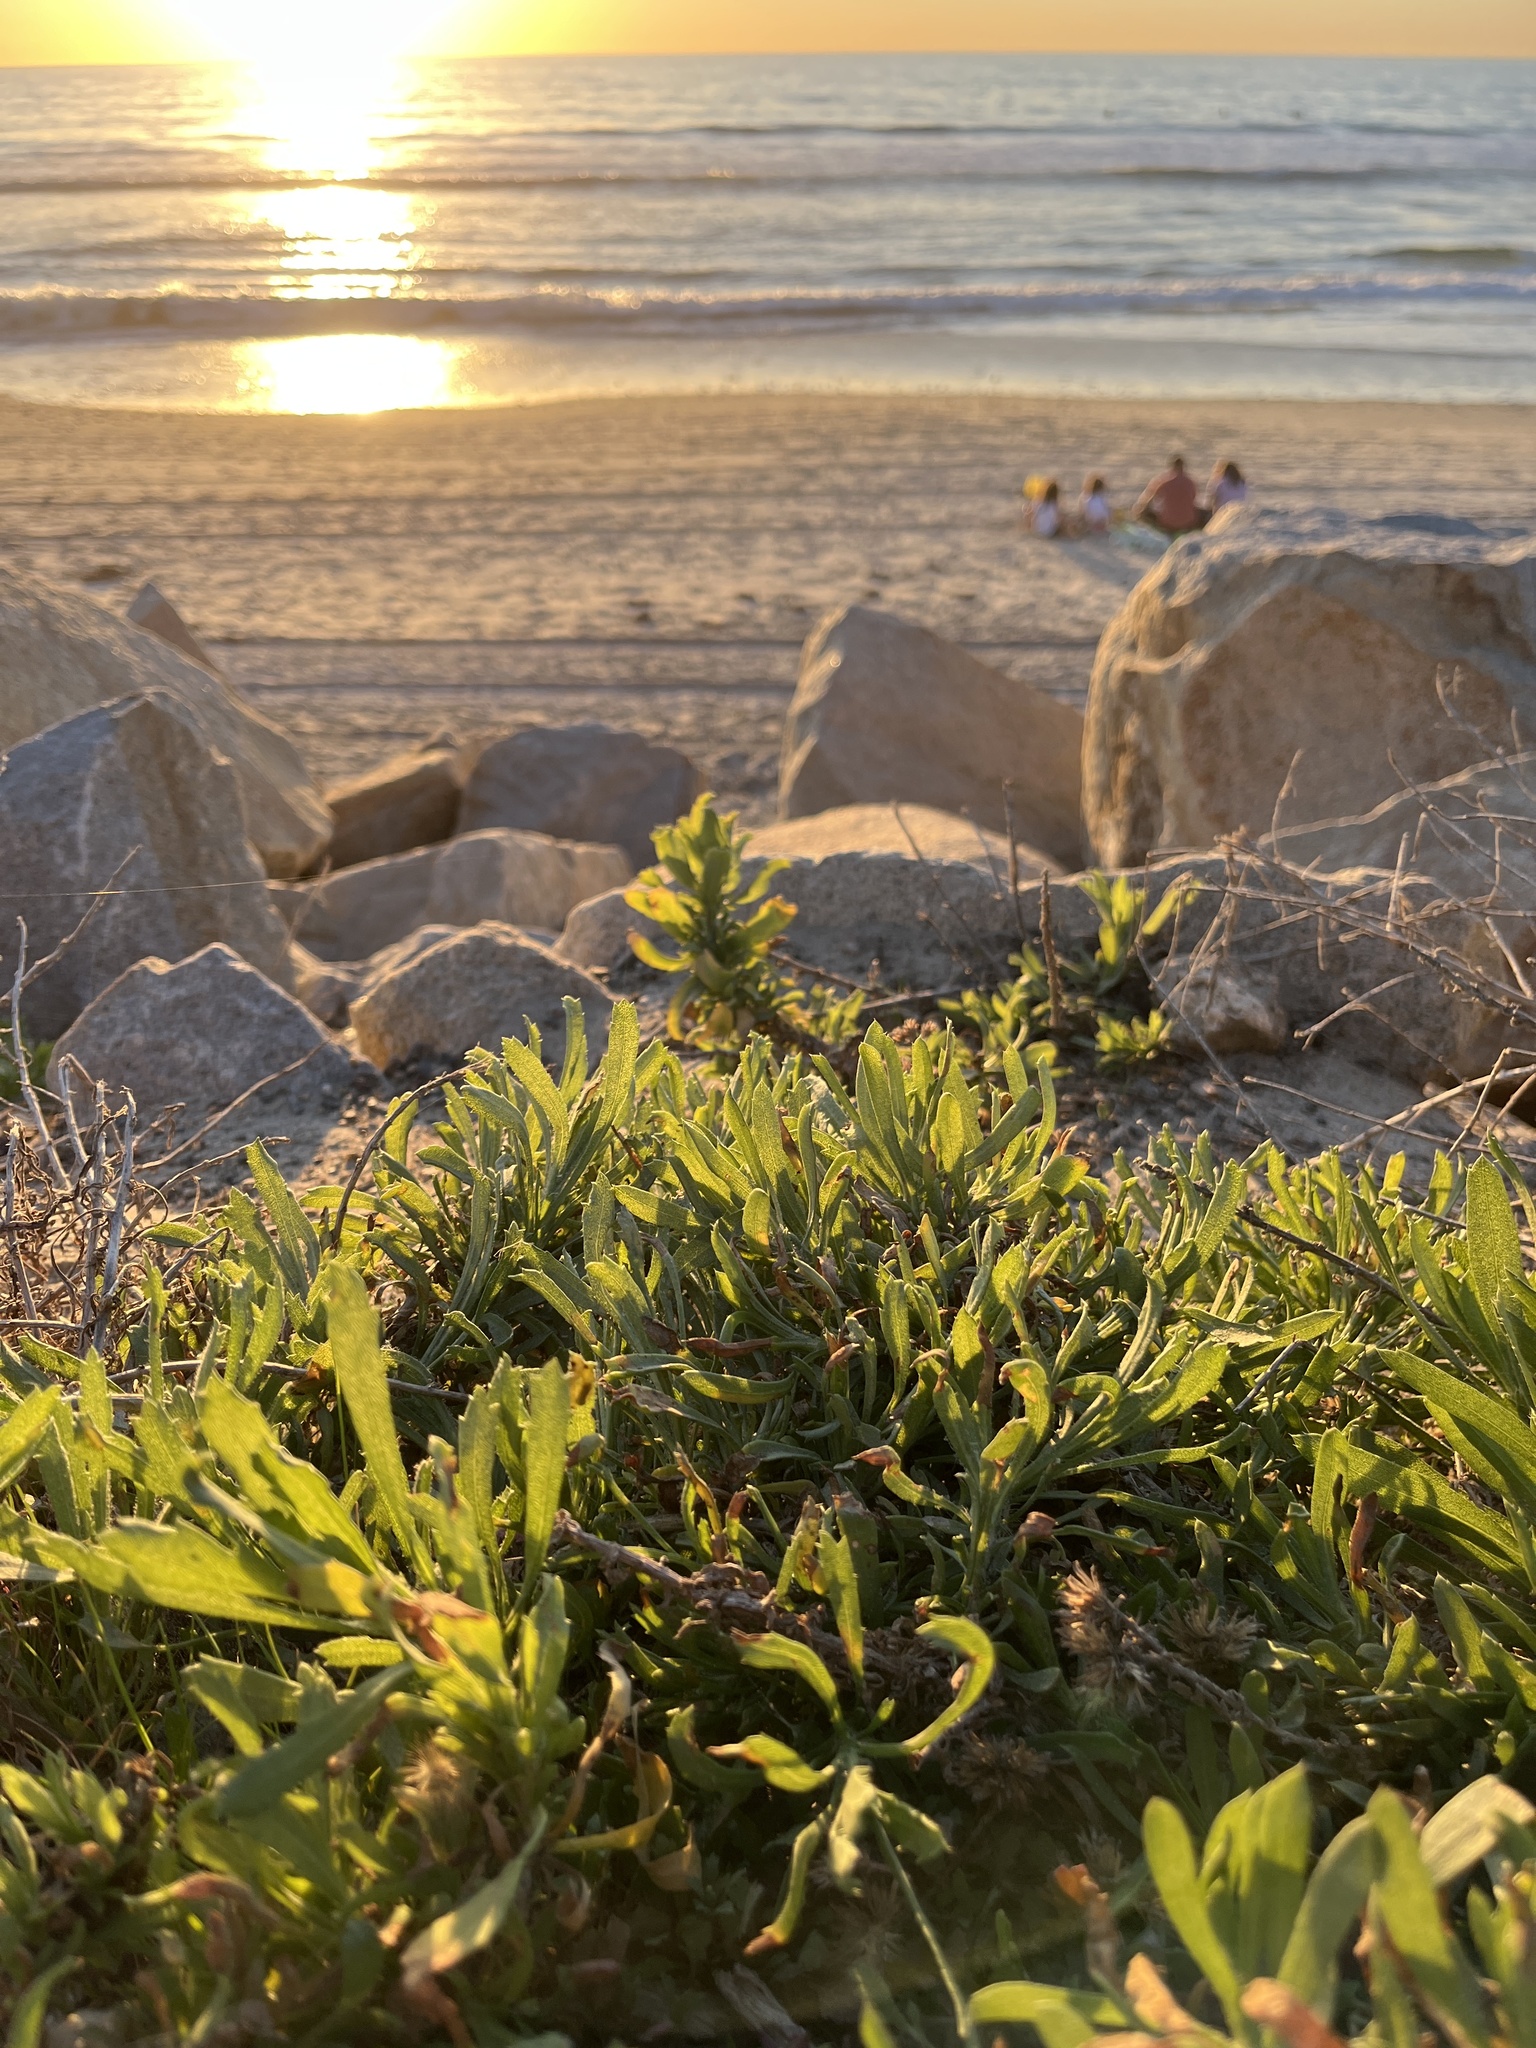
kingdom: Plantae
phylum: Tracheophyta
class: Magnoliopsida
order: Asterales
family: Asteraceae
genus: Isocoma
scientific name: Isocoma menziesii
